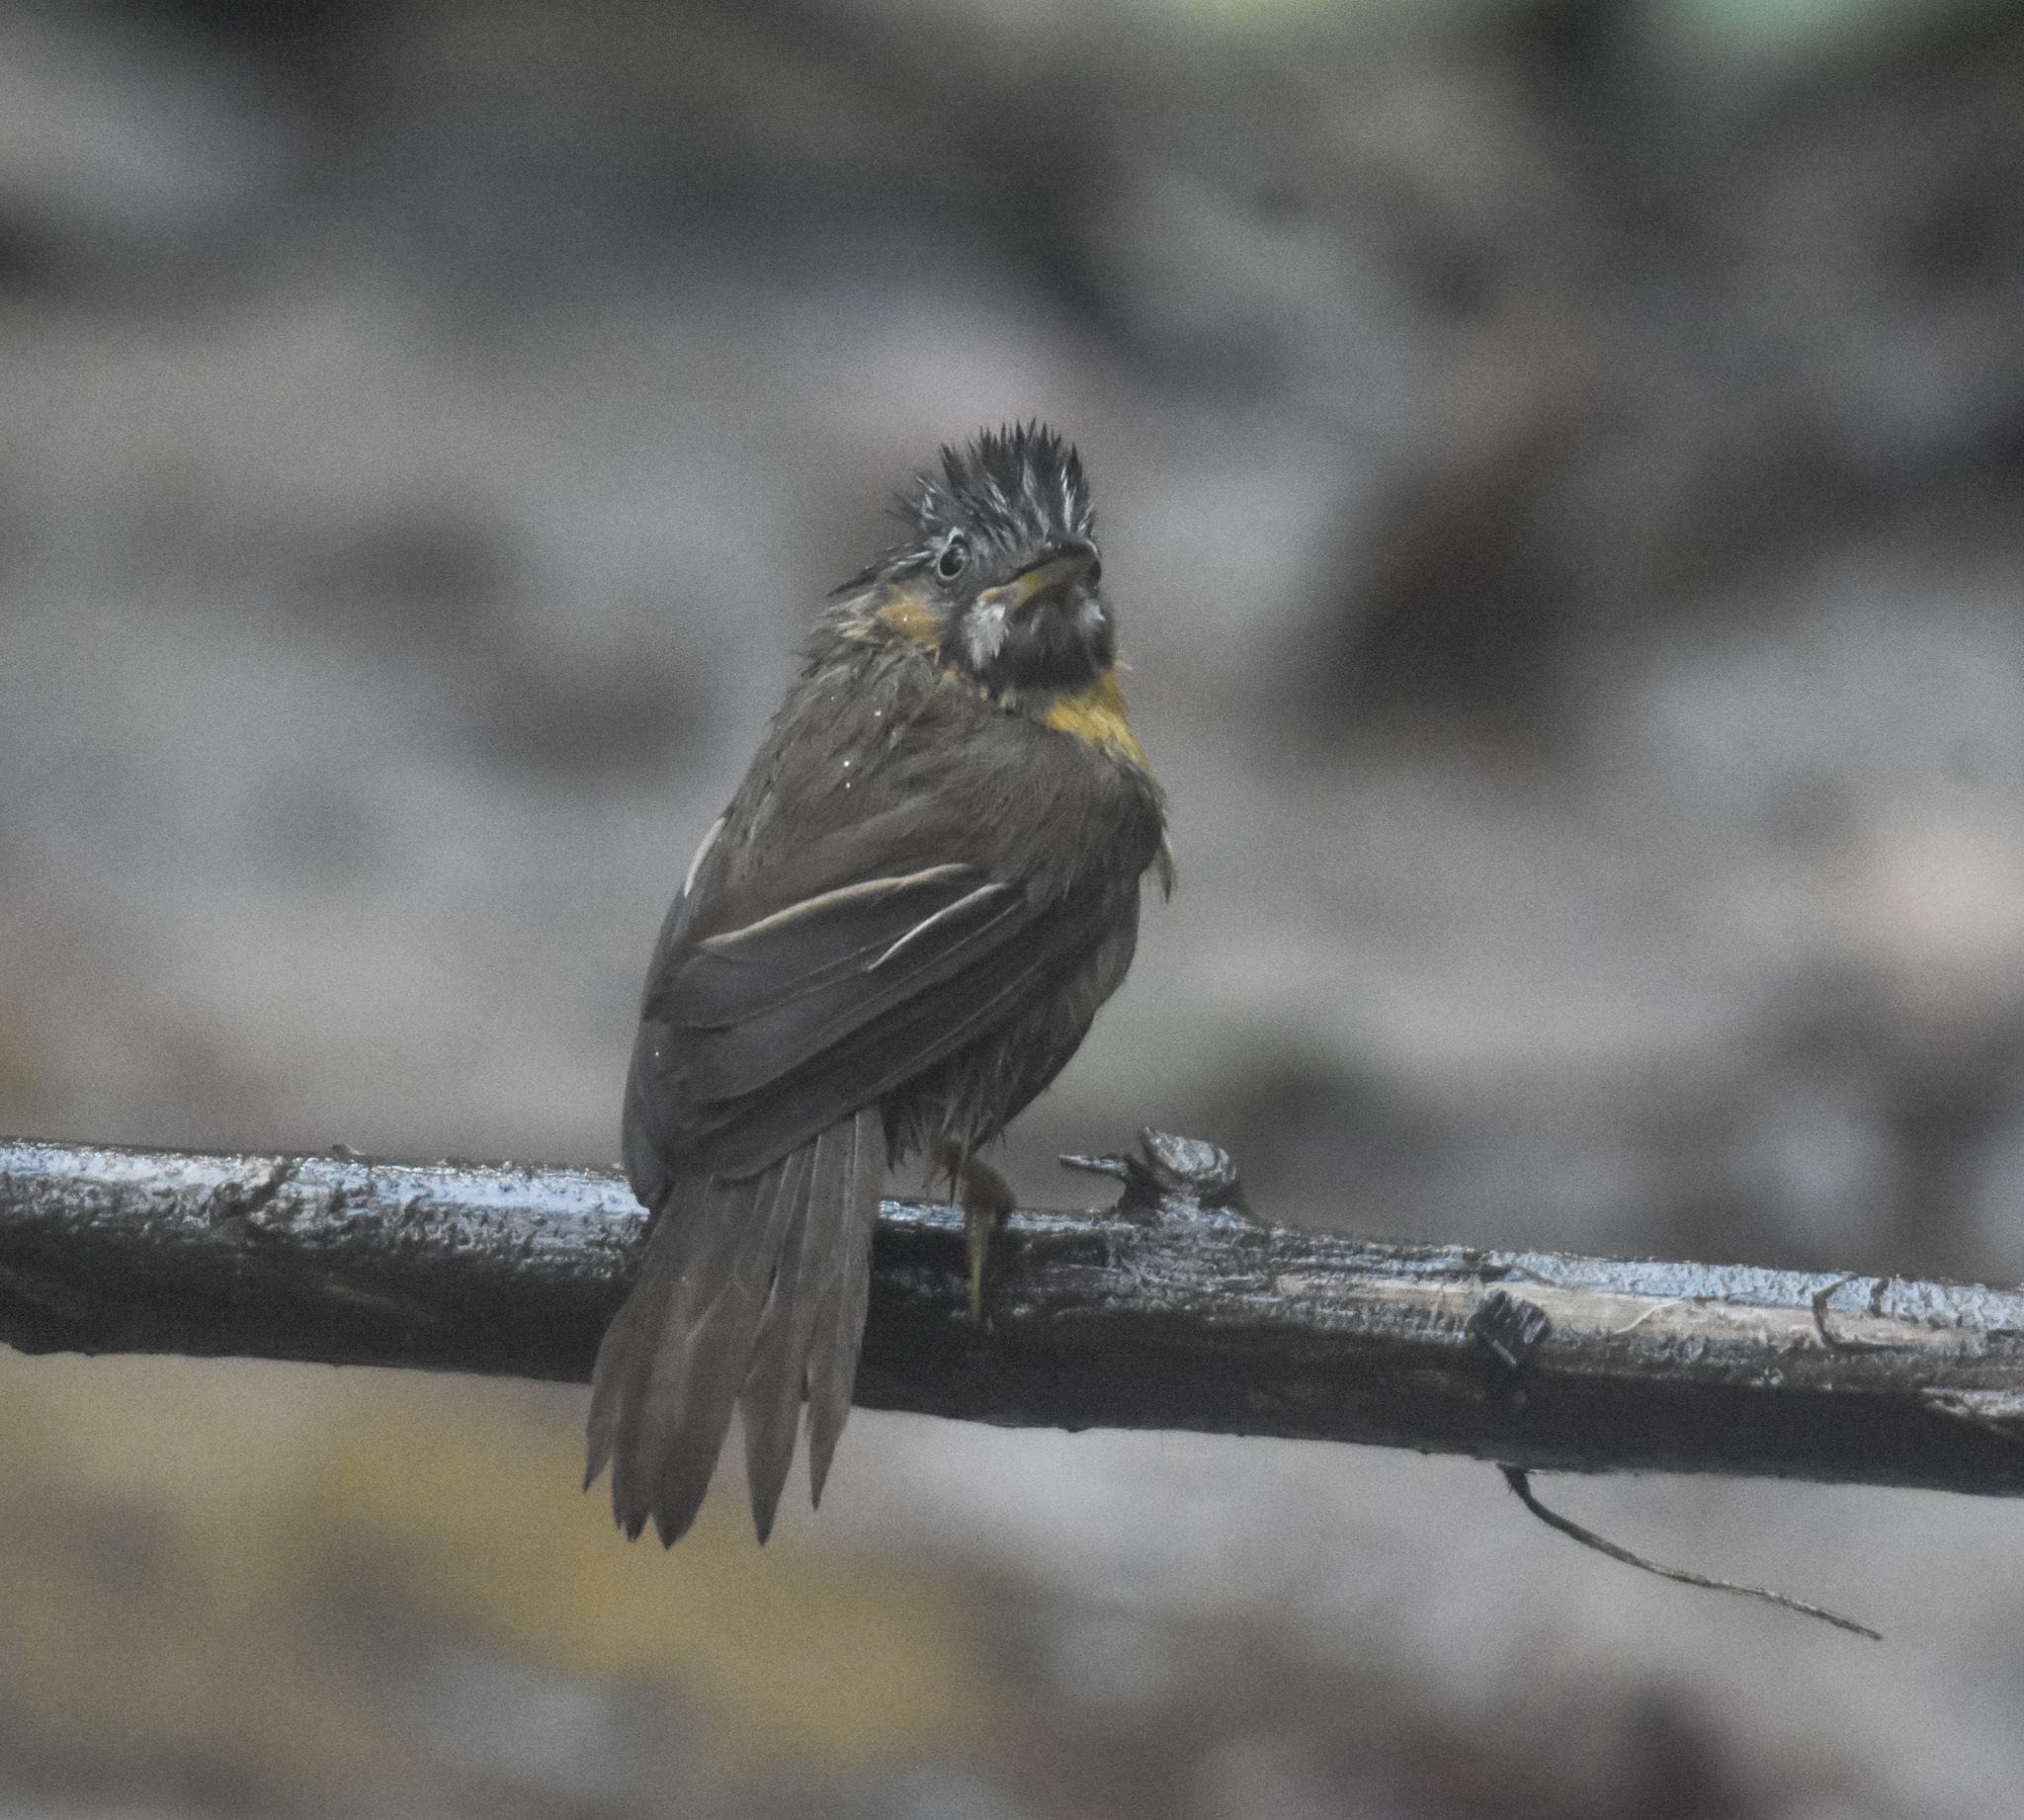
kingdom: Animalia
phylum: Chordata
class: Aves
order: Passeriformes
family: Timaliidae
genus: Stachyris
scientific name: Stachyris nigriceps
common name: Grey-throated babbler
